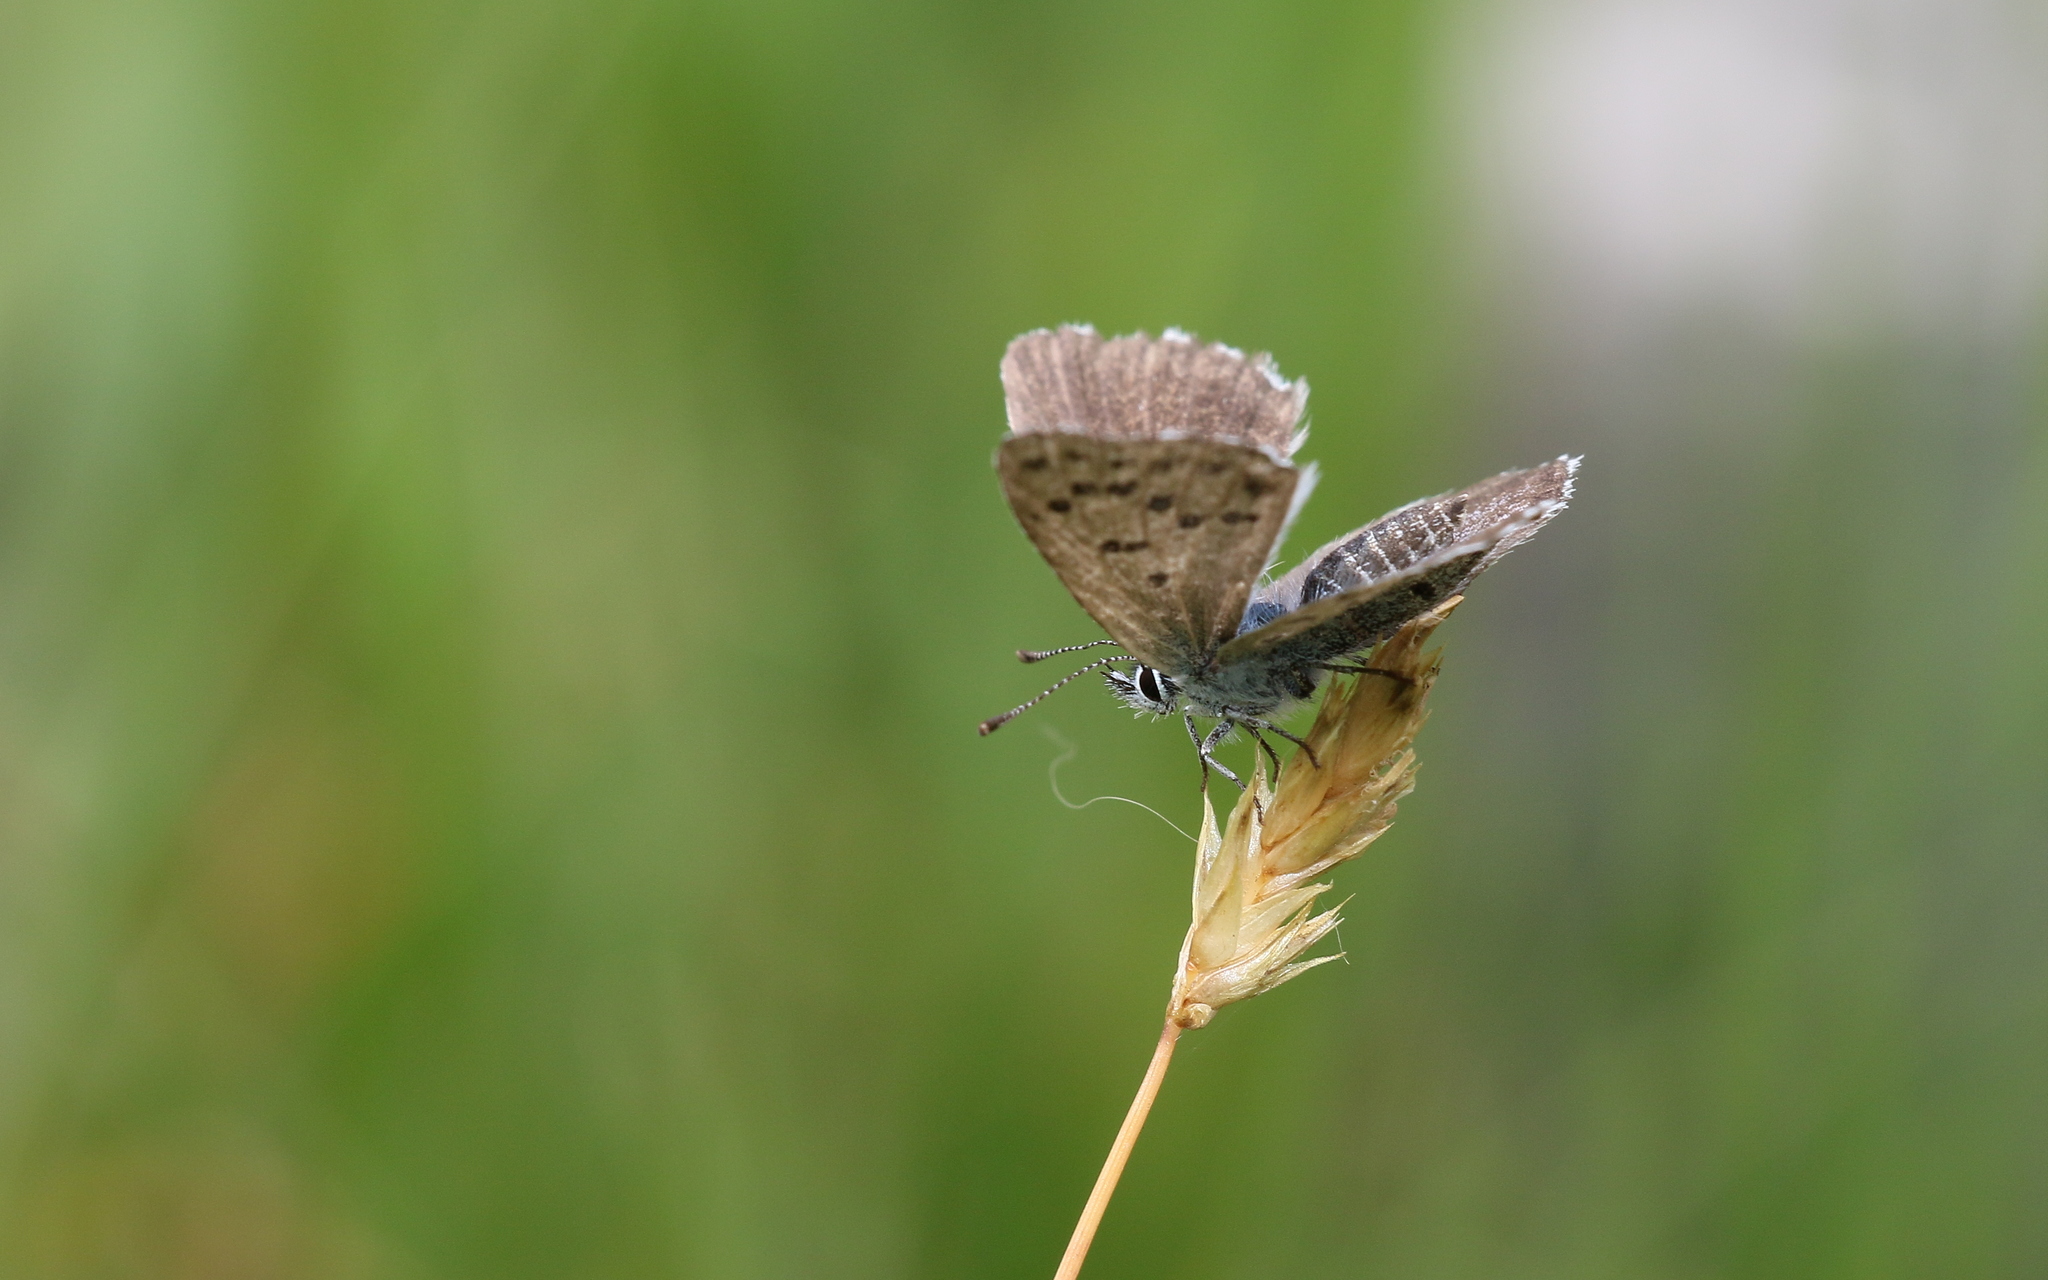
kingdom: Animalia
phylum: Arthropoda
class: Insecta
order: Lepidoptera
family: Lycaenidae
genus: Pseudophilotes
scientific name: Pseudophilotes baton
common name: Baton blue
